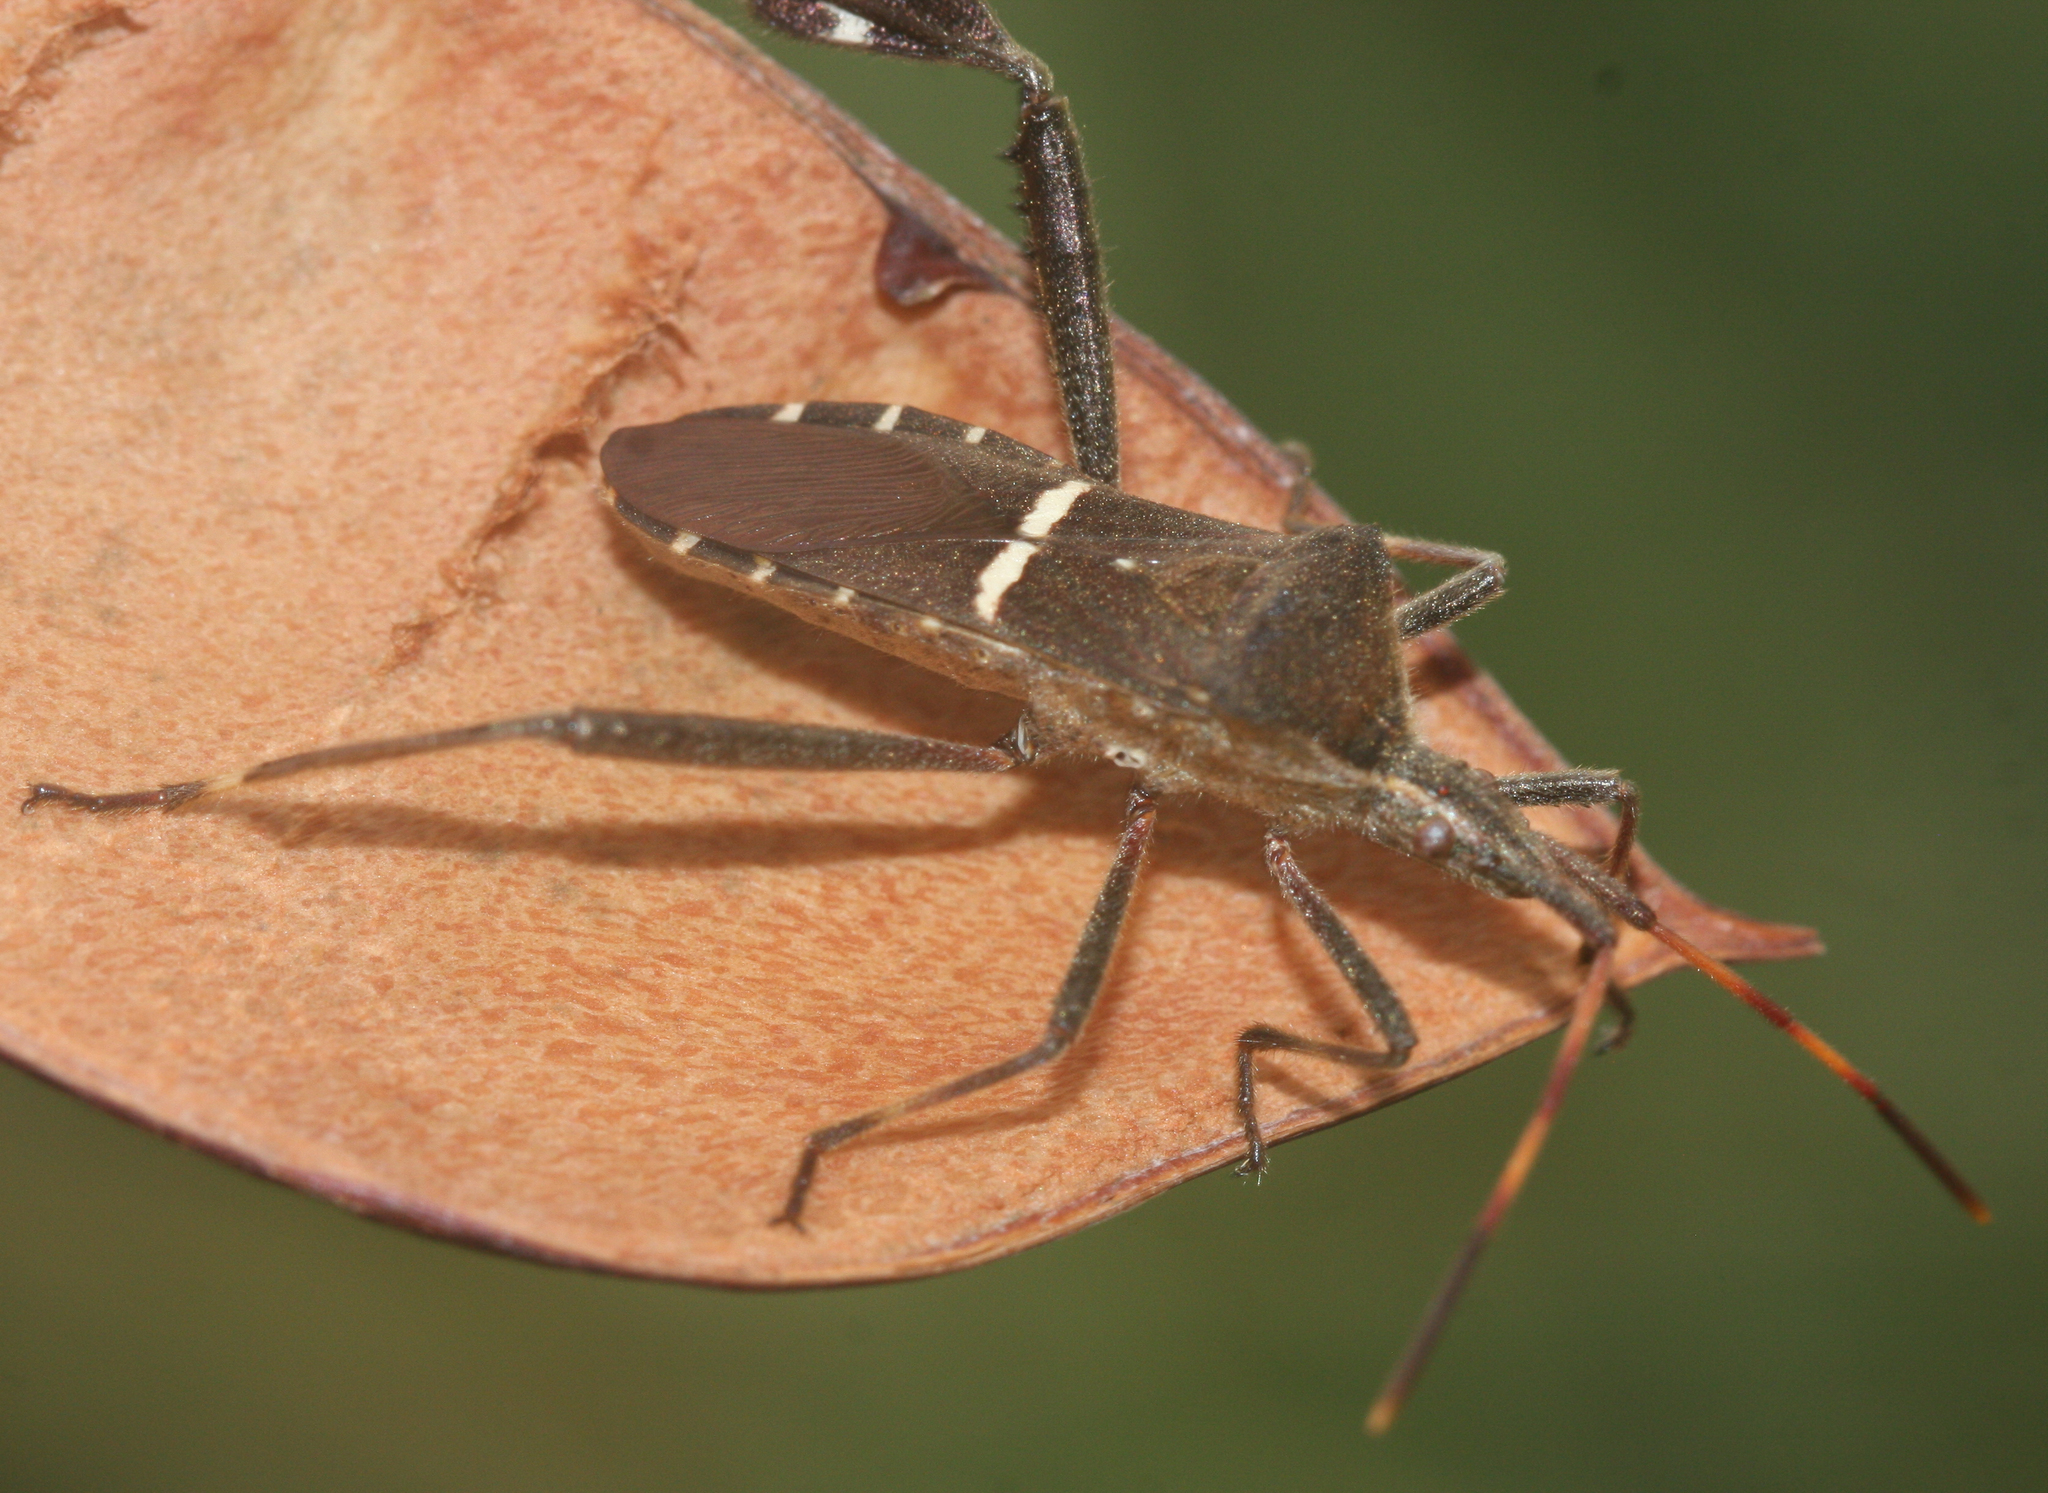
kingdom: Animalia
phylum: Arthropoda
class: Insecta
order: Hemiptera
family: Coreidae
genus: Leptoglossus
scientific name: Leptoglossus phyllopus
